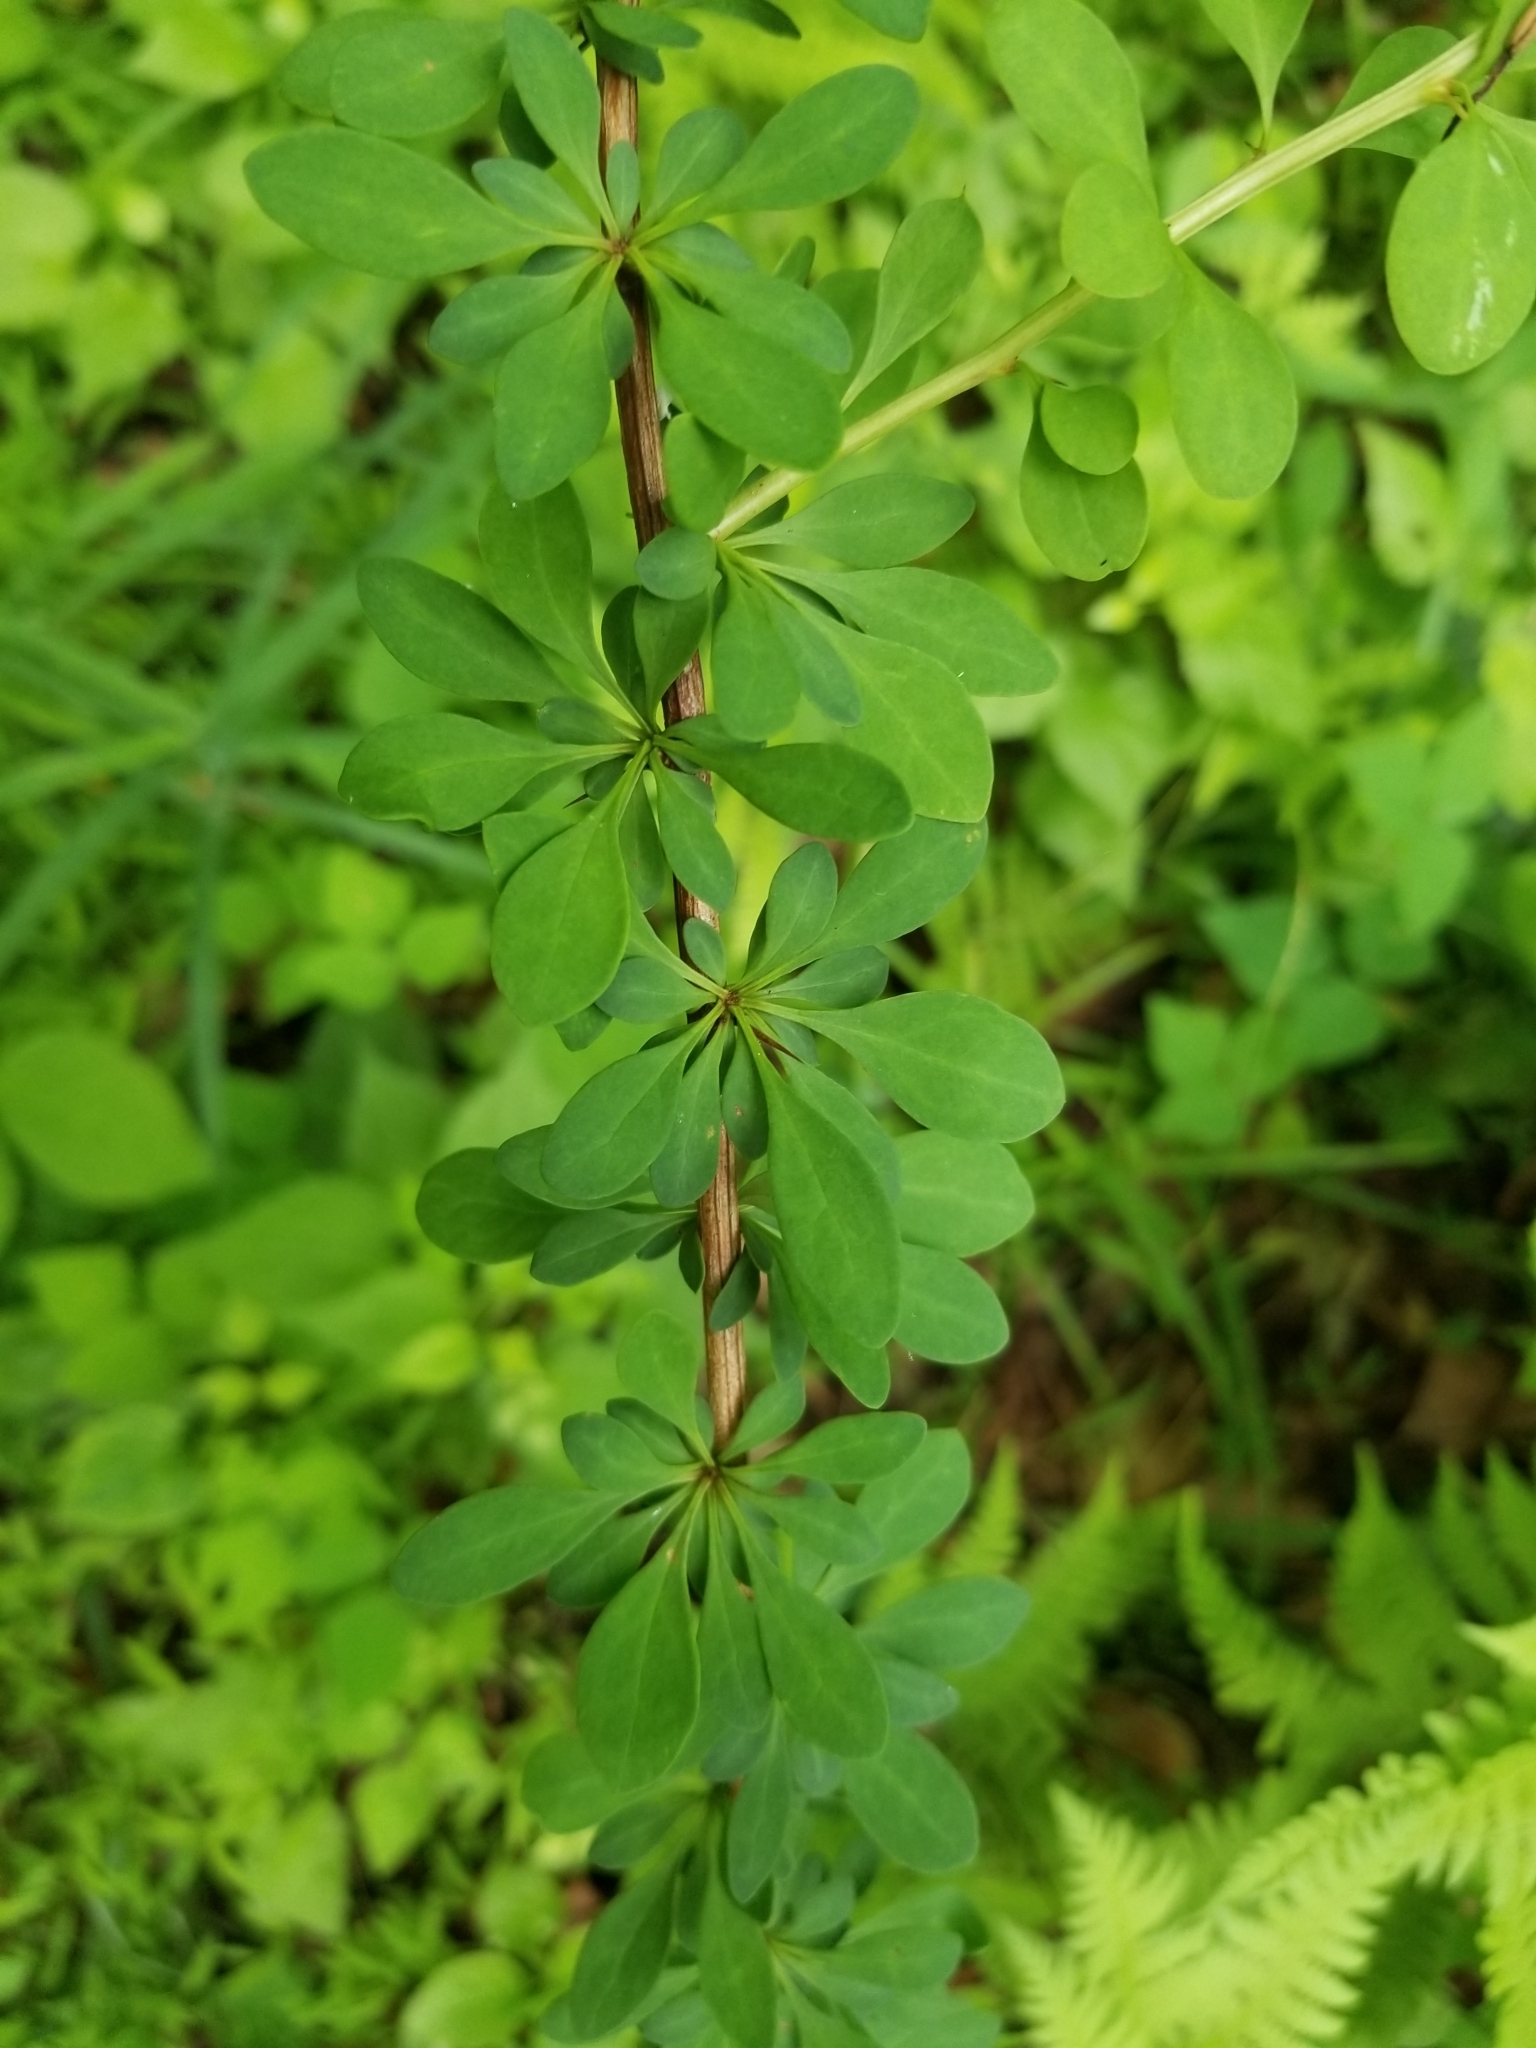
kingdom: Plantae
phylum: Tracheophyta
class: Magnoliopsida
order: Ranunculales
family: Berberidaceae
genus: Berberis
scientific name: Berberis thunbergii
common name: Japanese barberry
